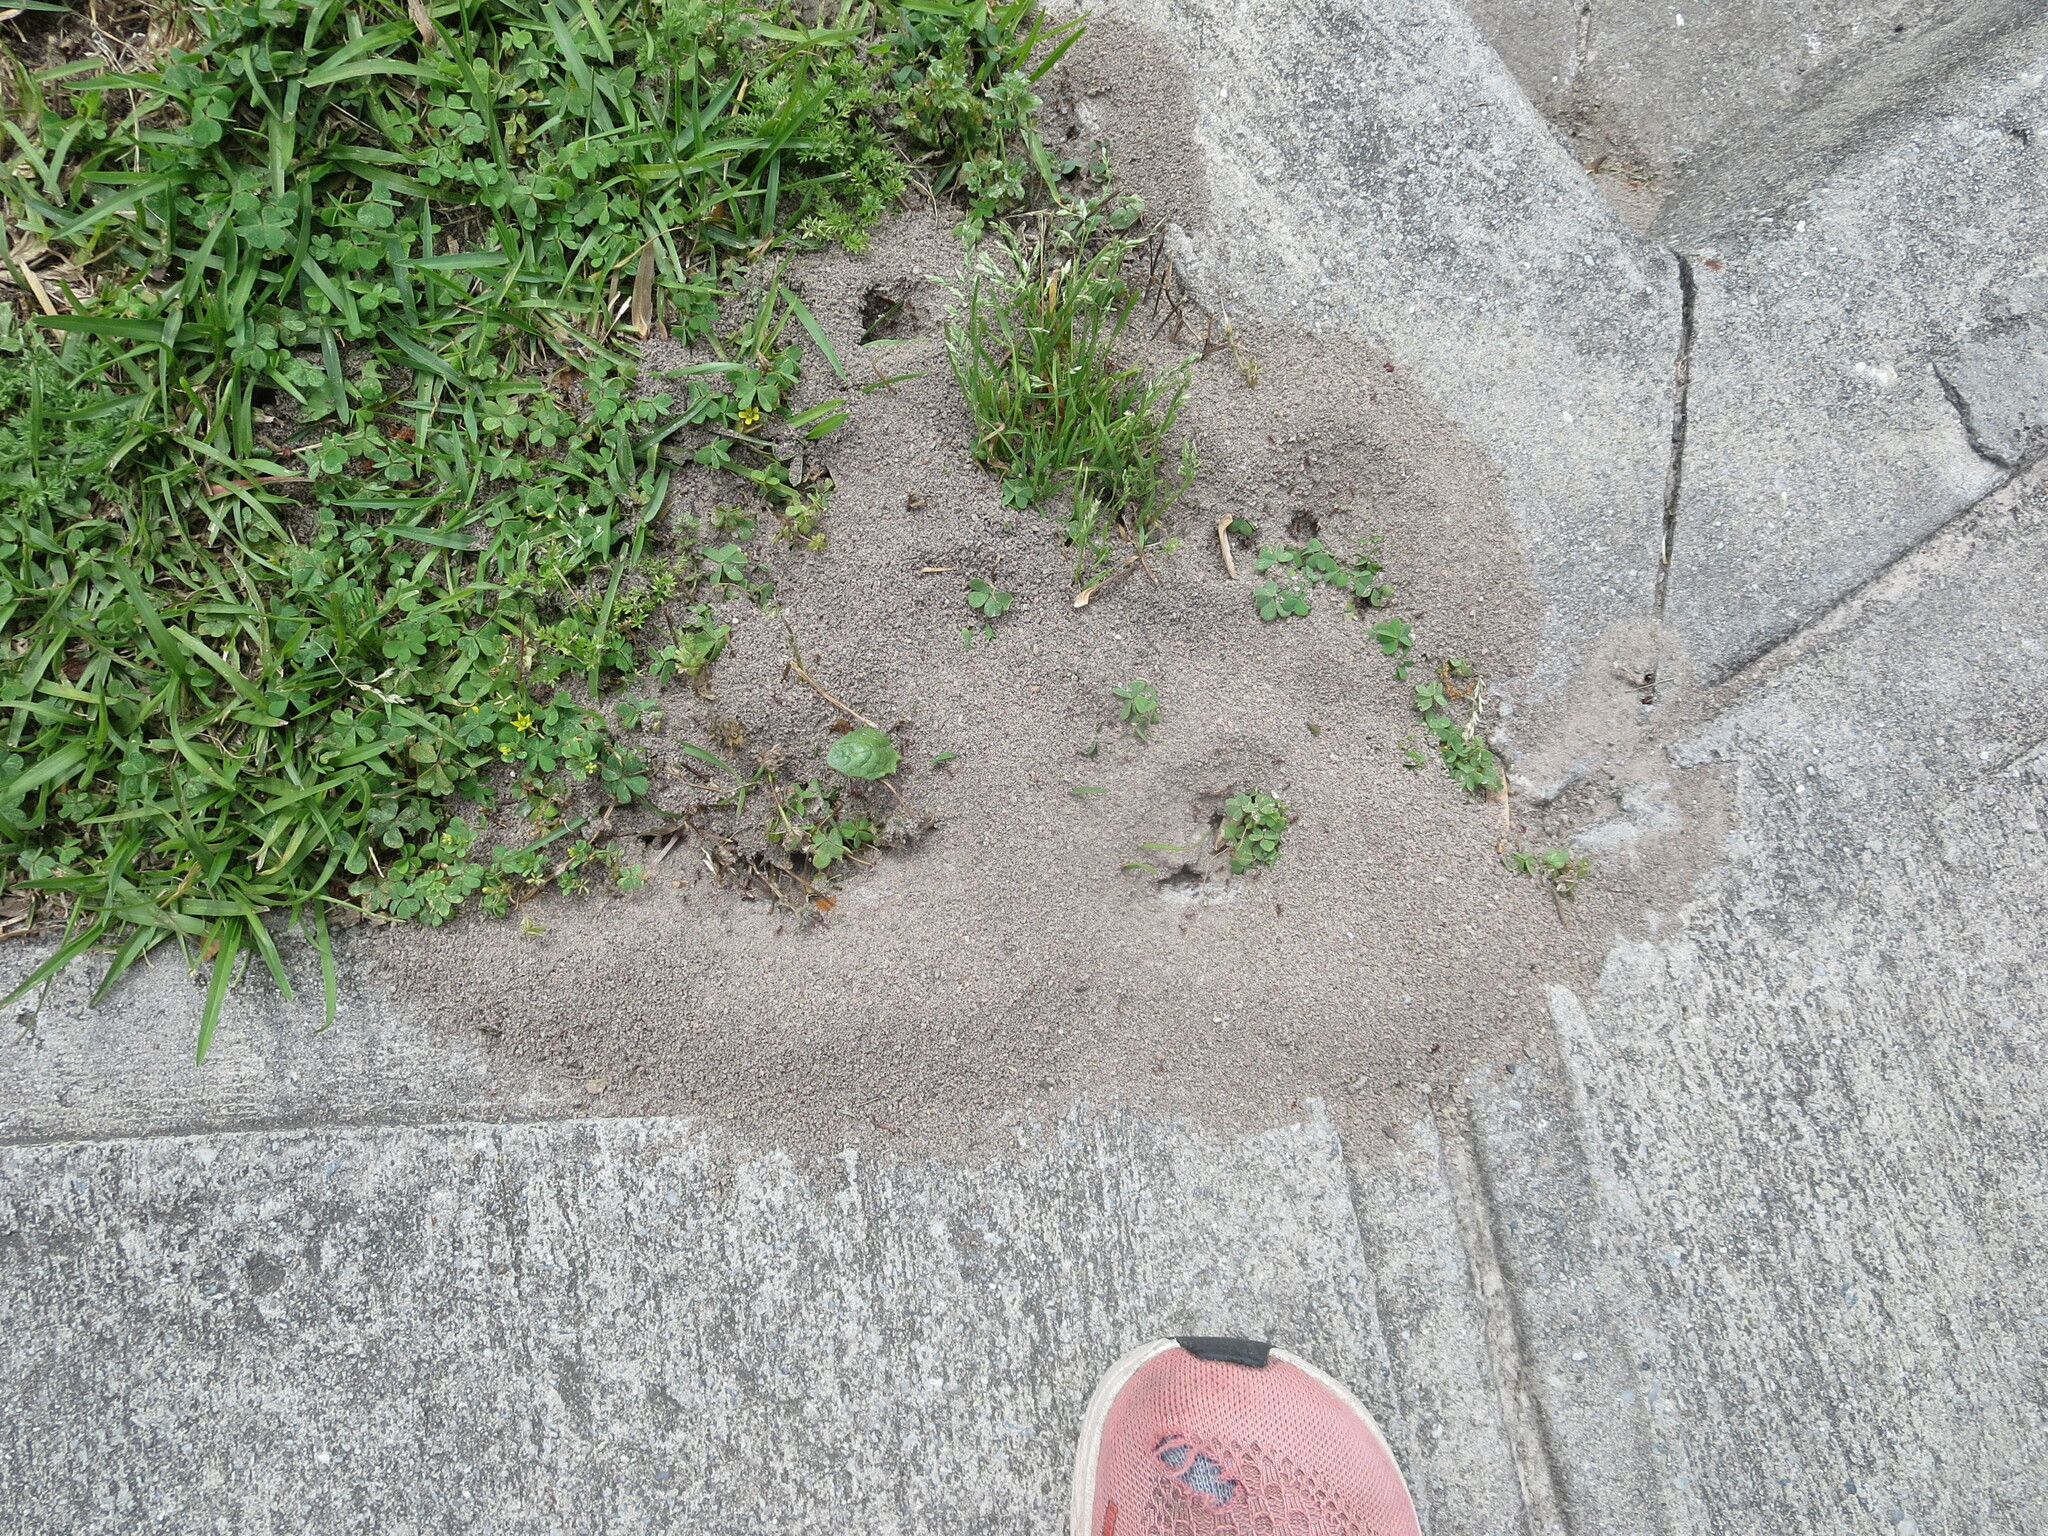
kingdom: Animalia
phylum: Arthropoda
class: Insecta
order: Hymenoptera
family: Formicidae
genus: Solenopsis
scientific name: Solenopsis invicta
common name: Red imported fire ant
